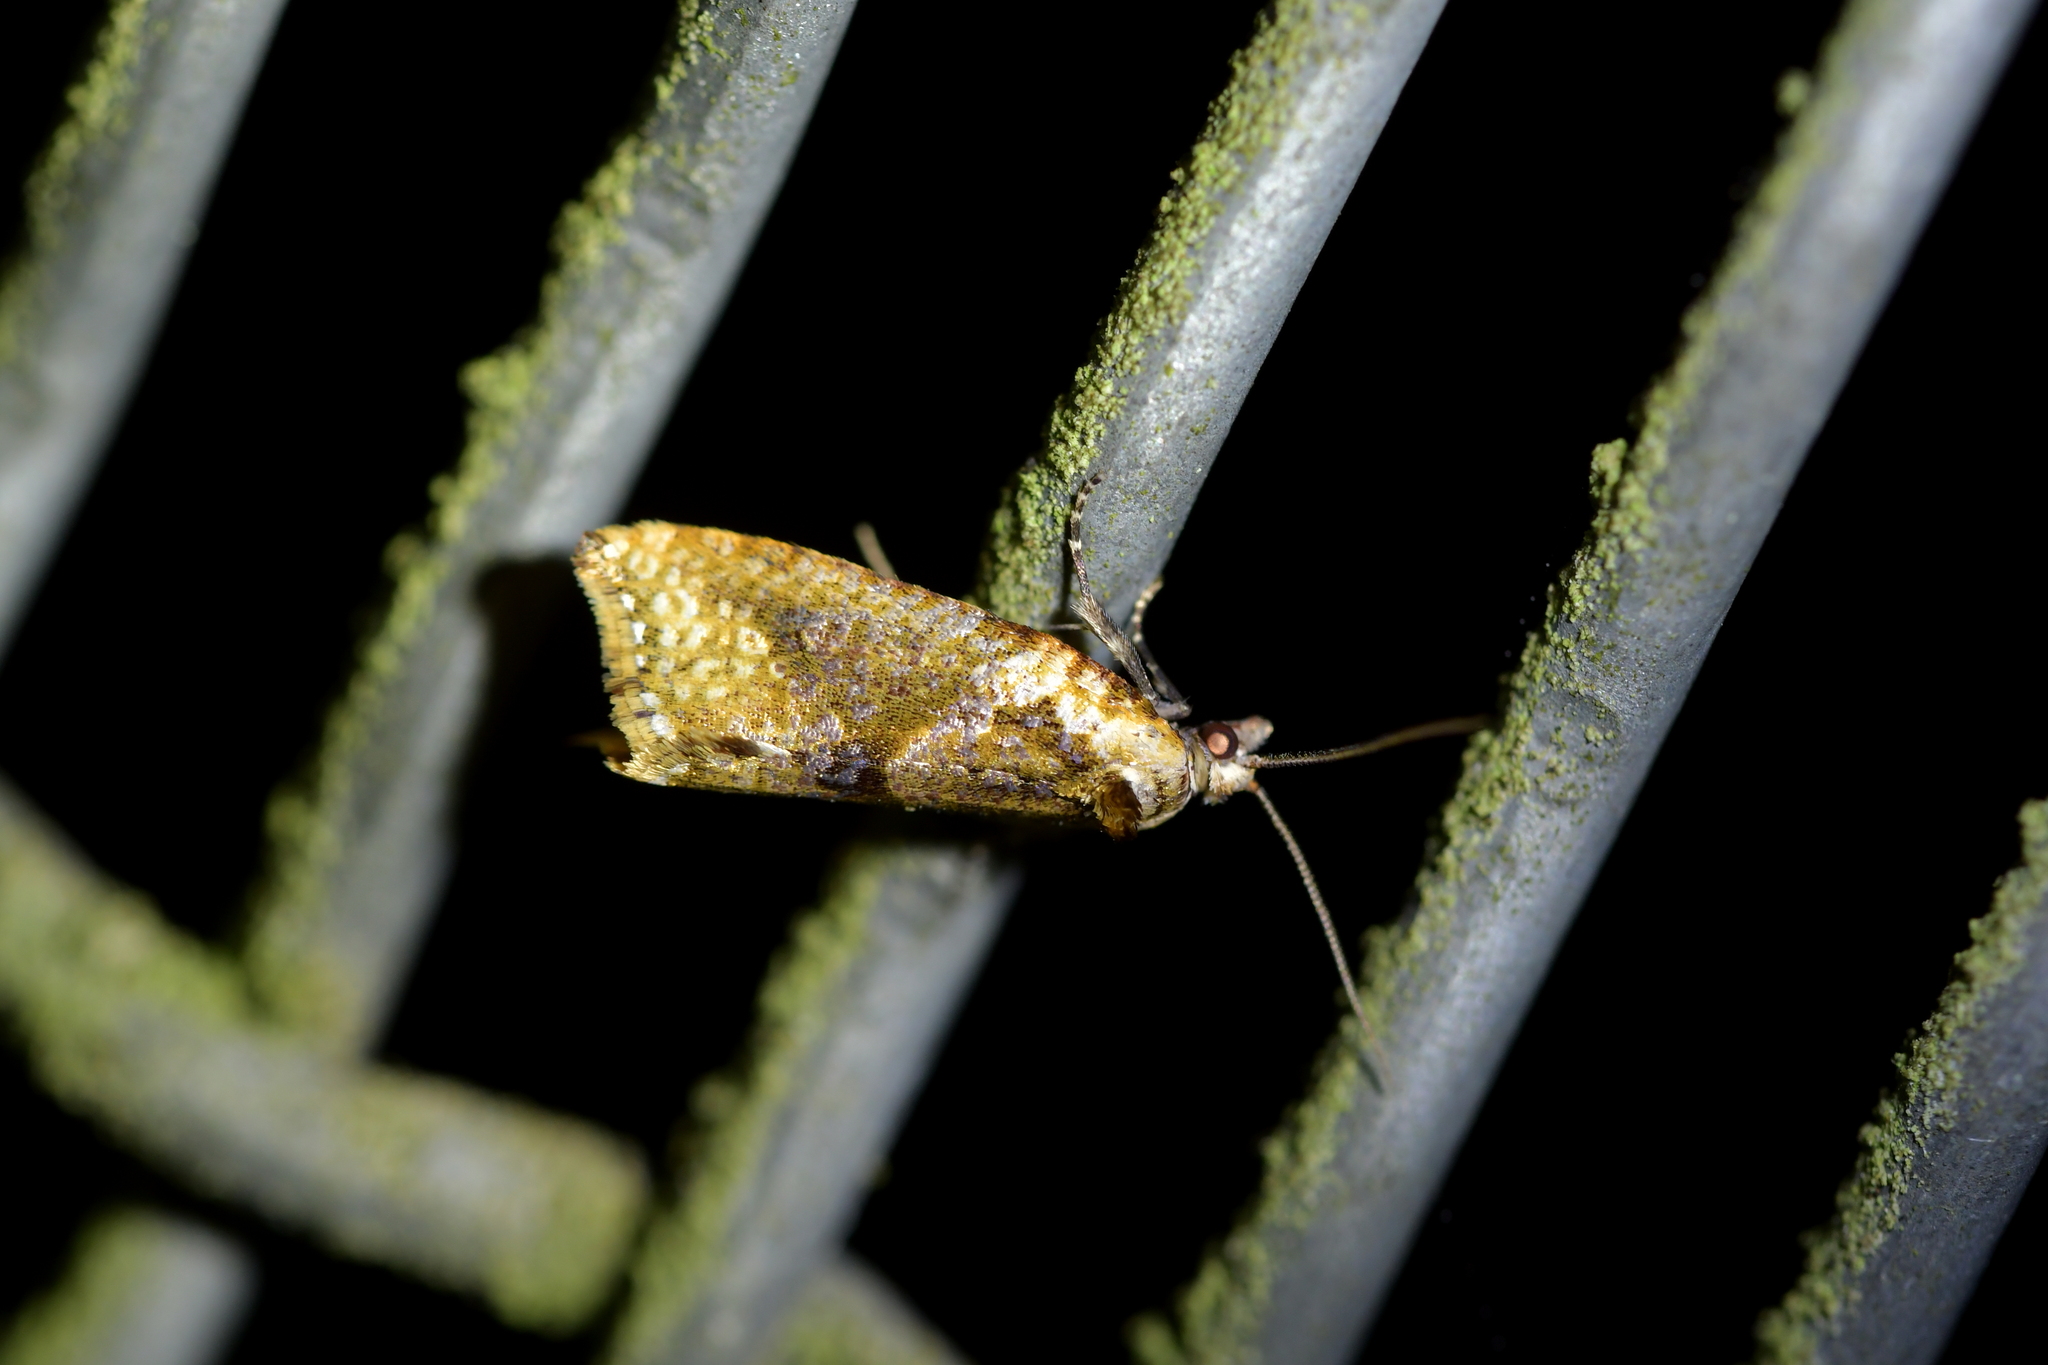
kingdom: Animalia
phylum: Arthropoda
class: Insecta
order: Lepidoptera
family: Tortricidae
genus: Pyrgotis
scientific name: Pyrgotis plagiatana
